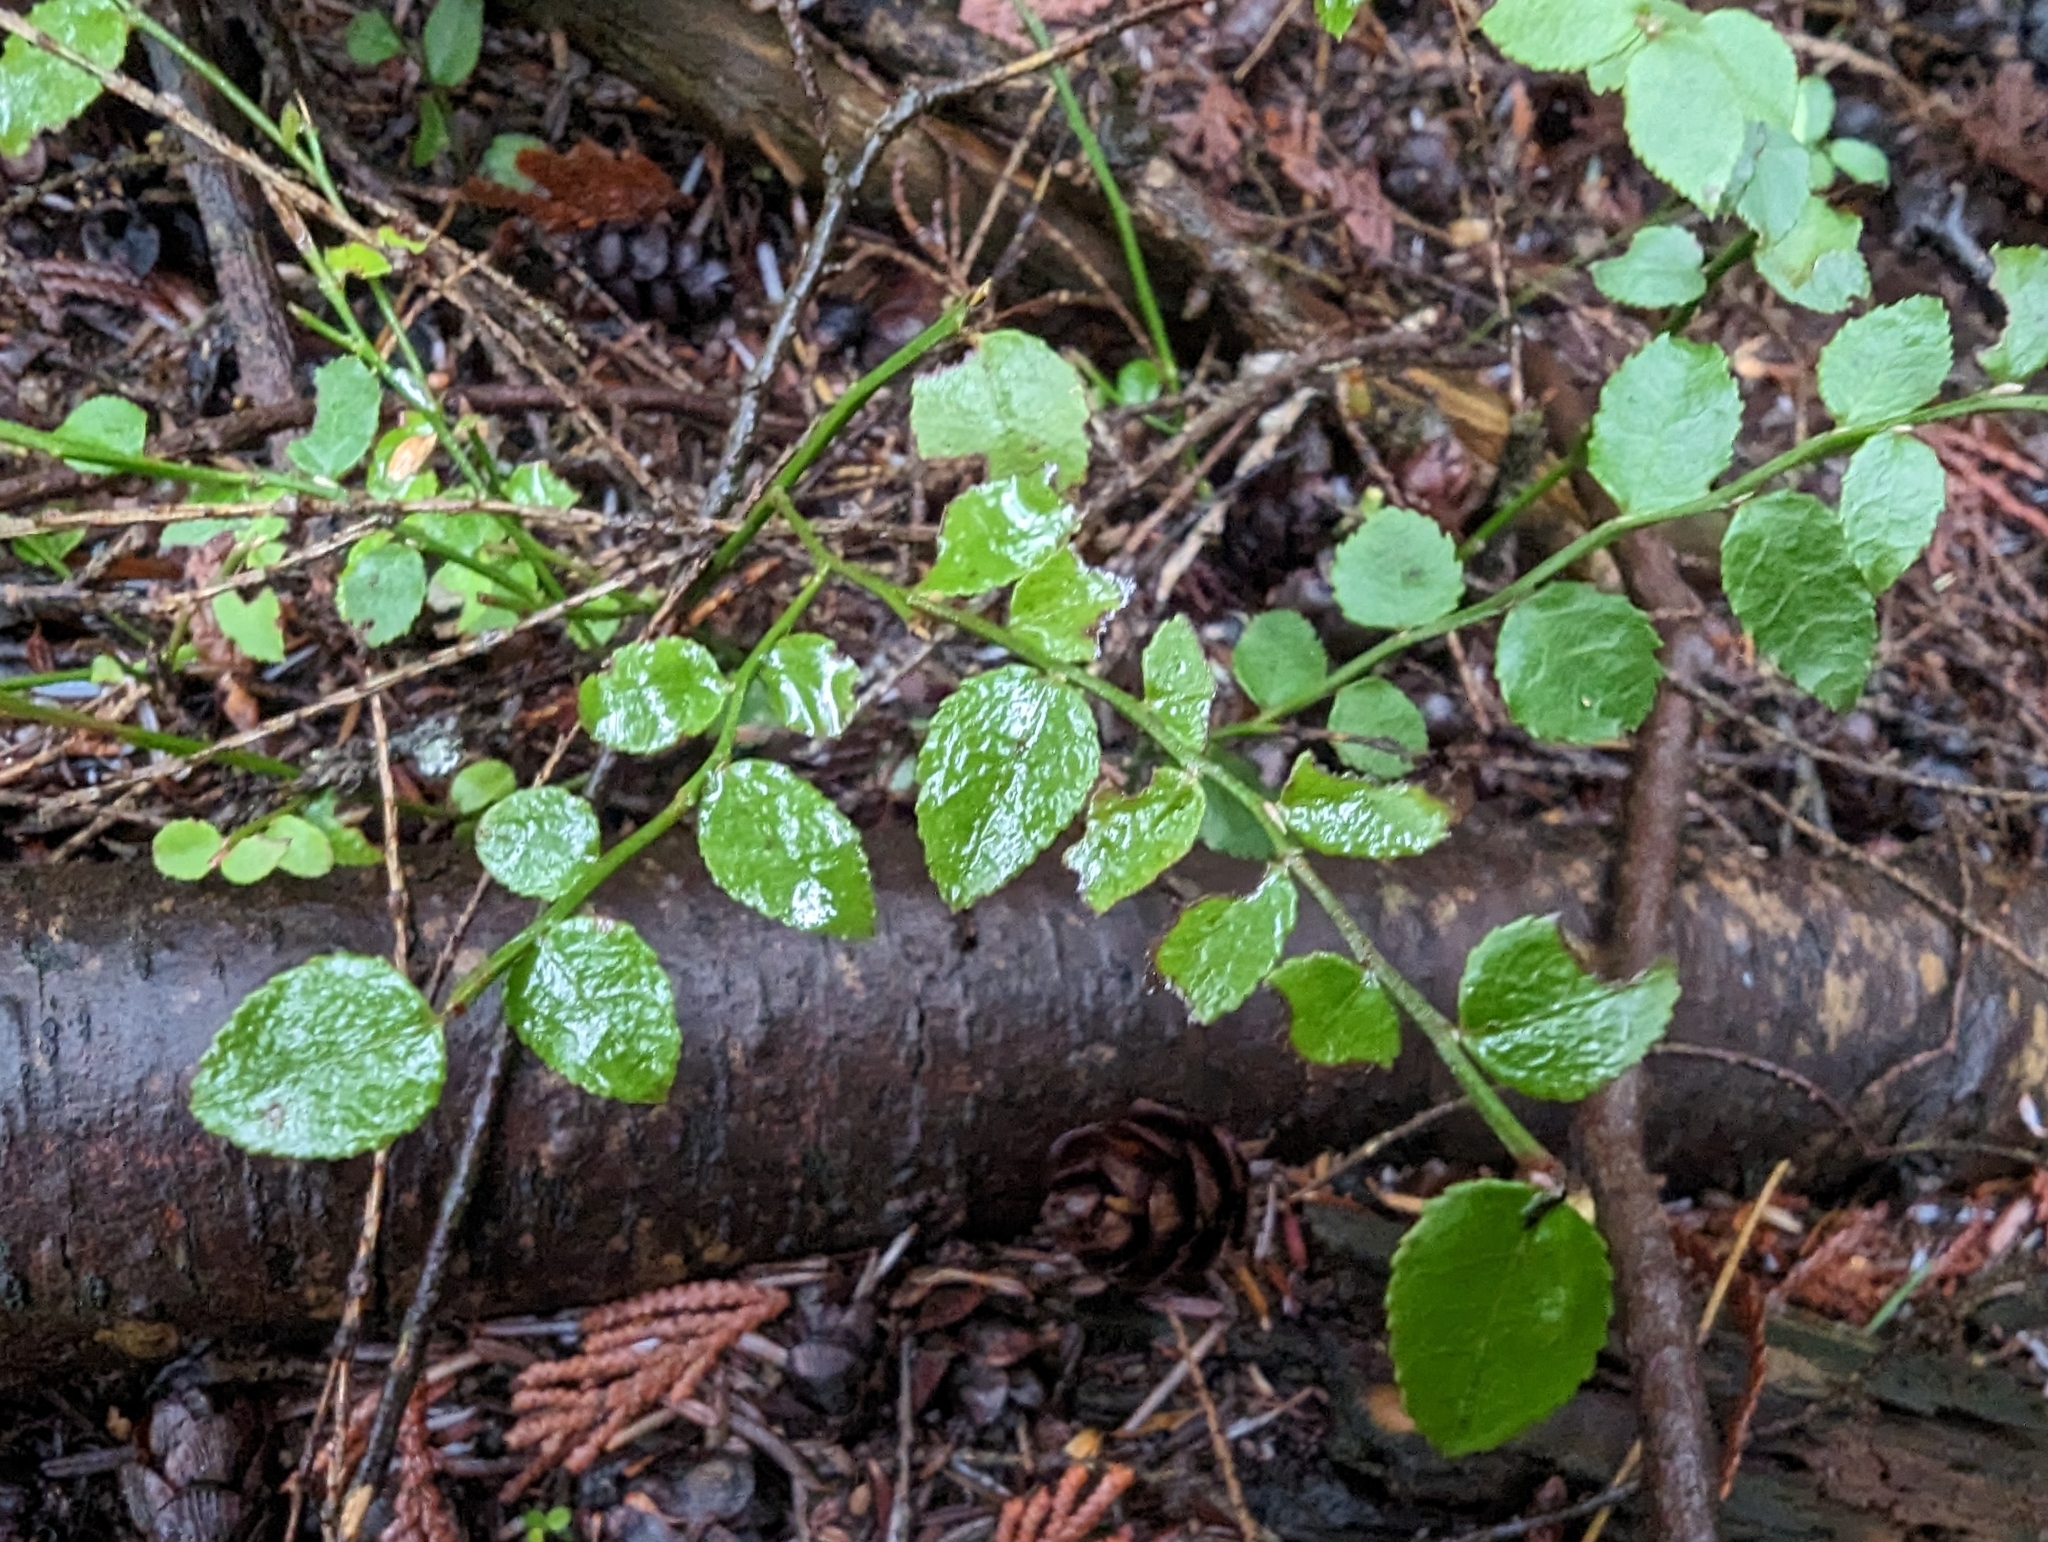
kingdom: Plantae
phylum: Tracheophyta
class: Magnoliopsida
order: Ericales
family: Ericaceae
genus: Vaccinium
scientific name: Vaccinium parvifolium
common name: Red-huckleberry
